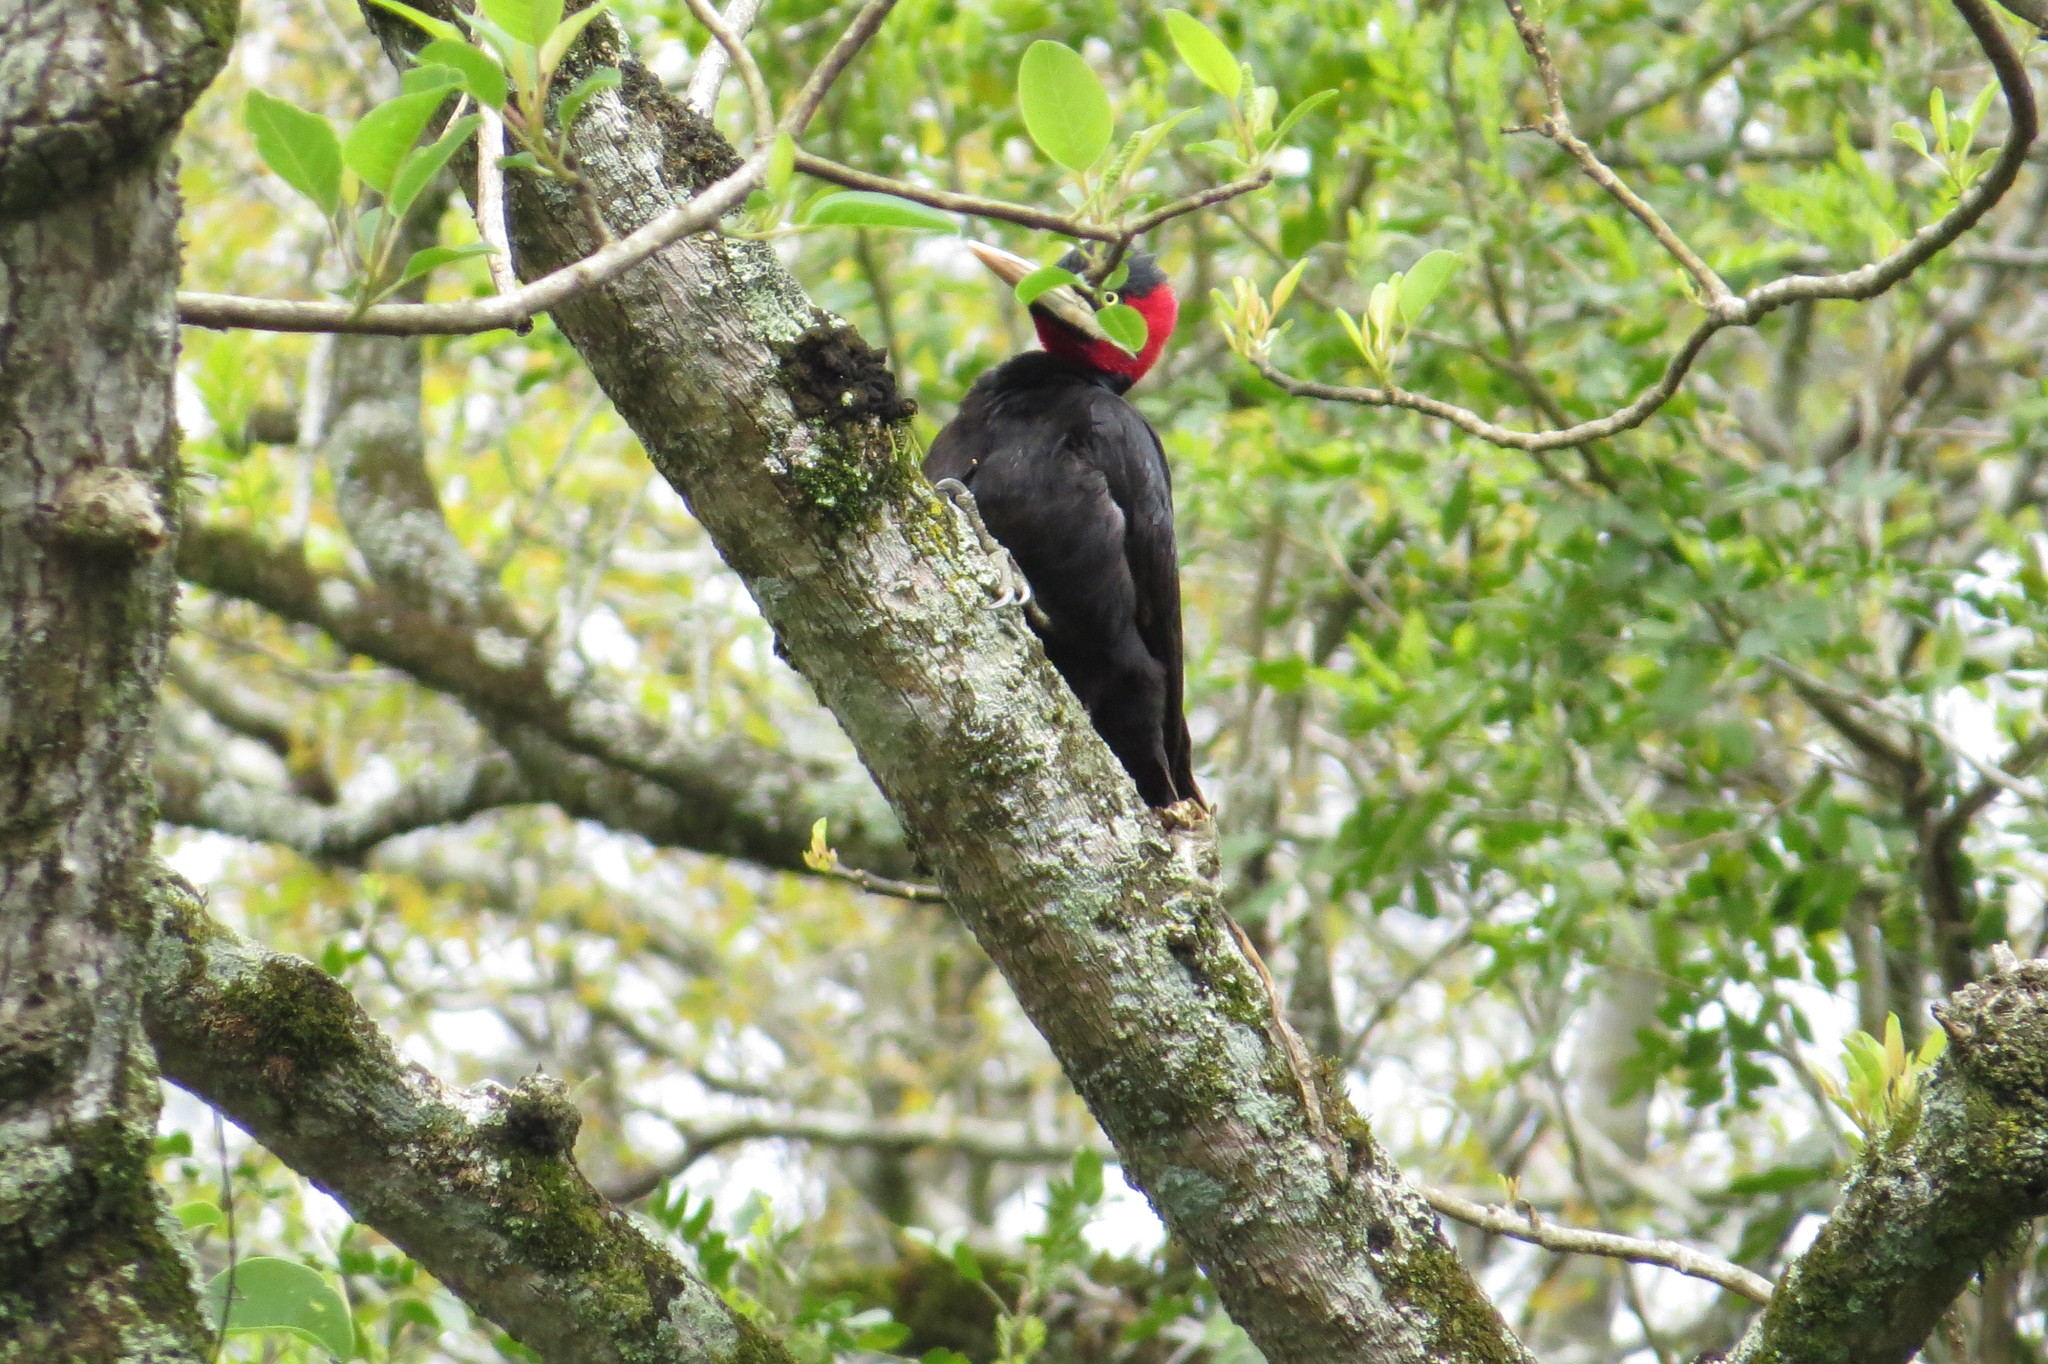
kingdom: Animalia
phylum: Chordata
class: Aves
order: Piciformes
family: Picidae
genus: Campephilus
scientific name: Campephilus leucopogon
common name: Cream-backed woodpecker
